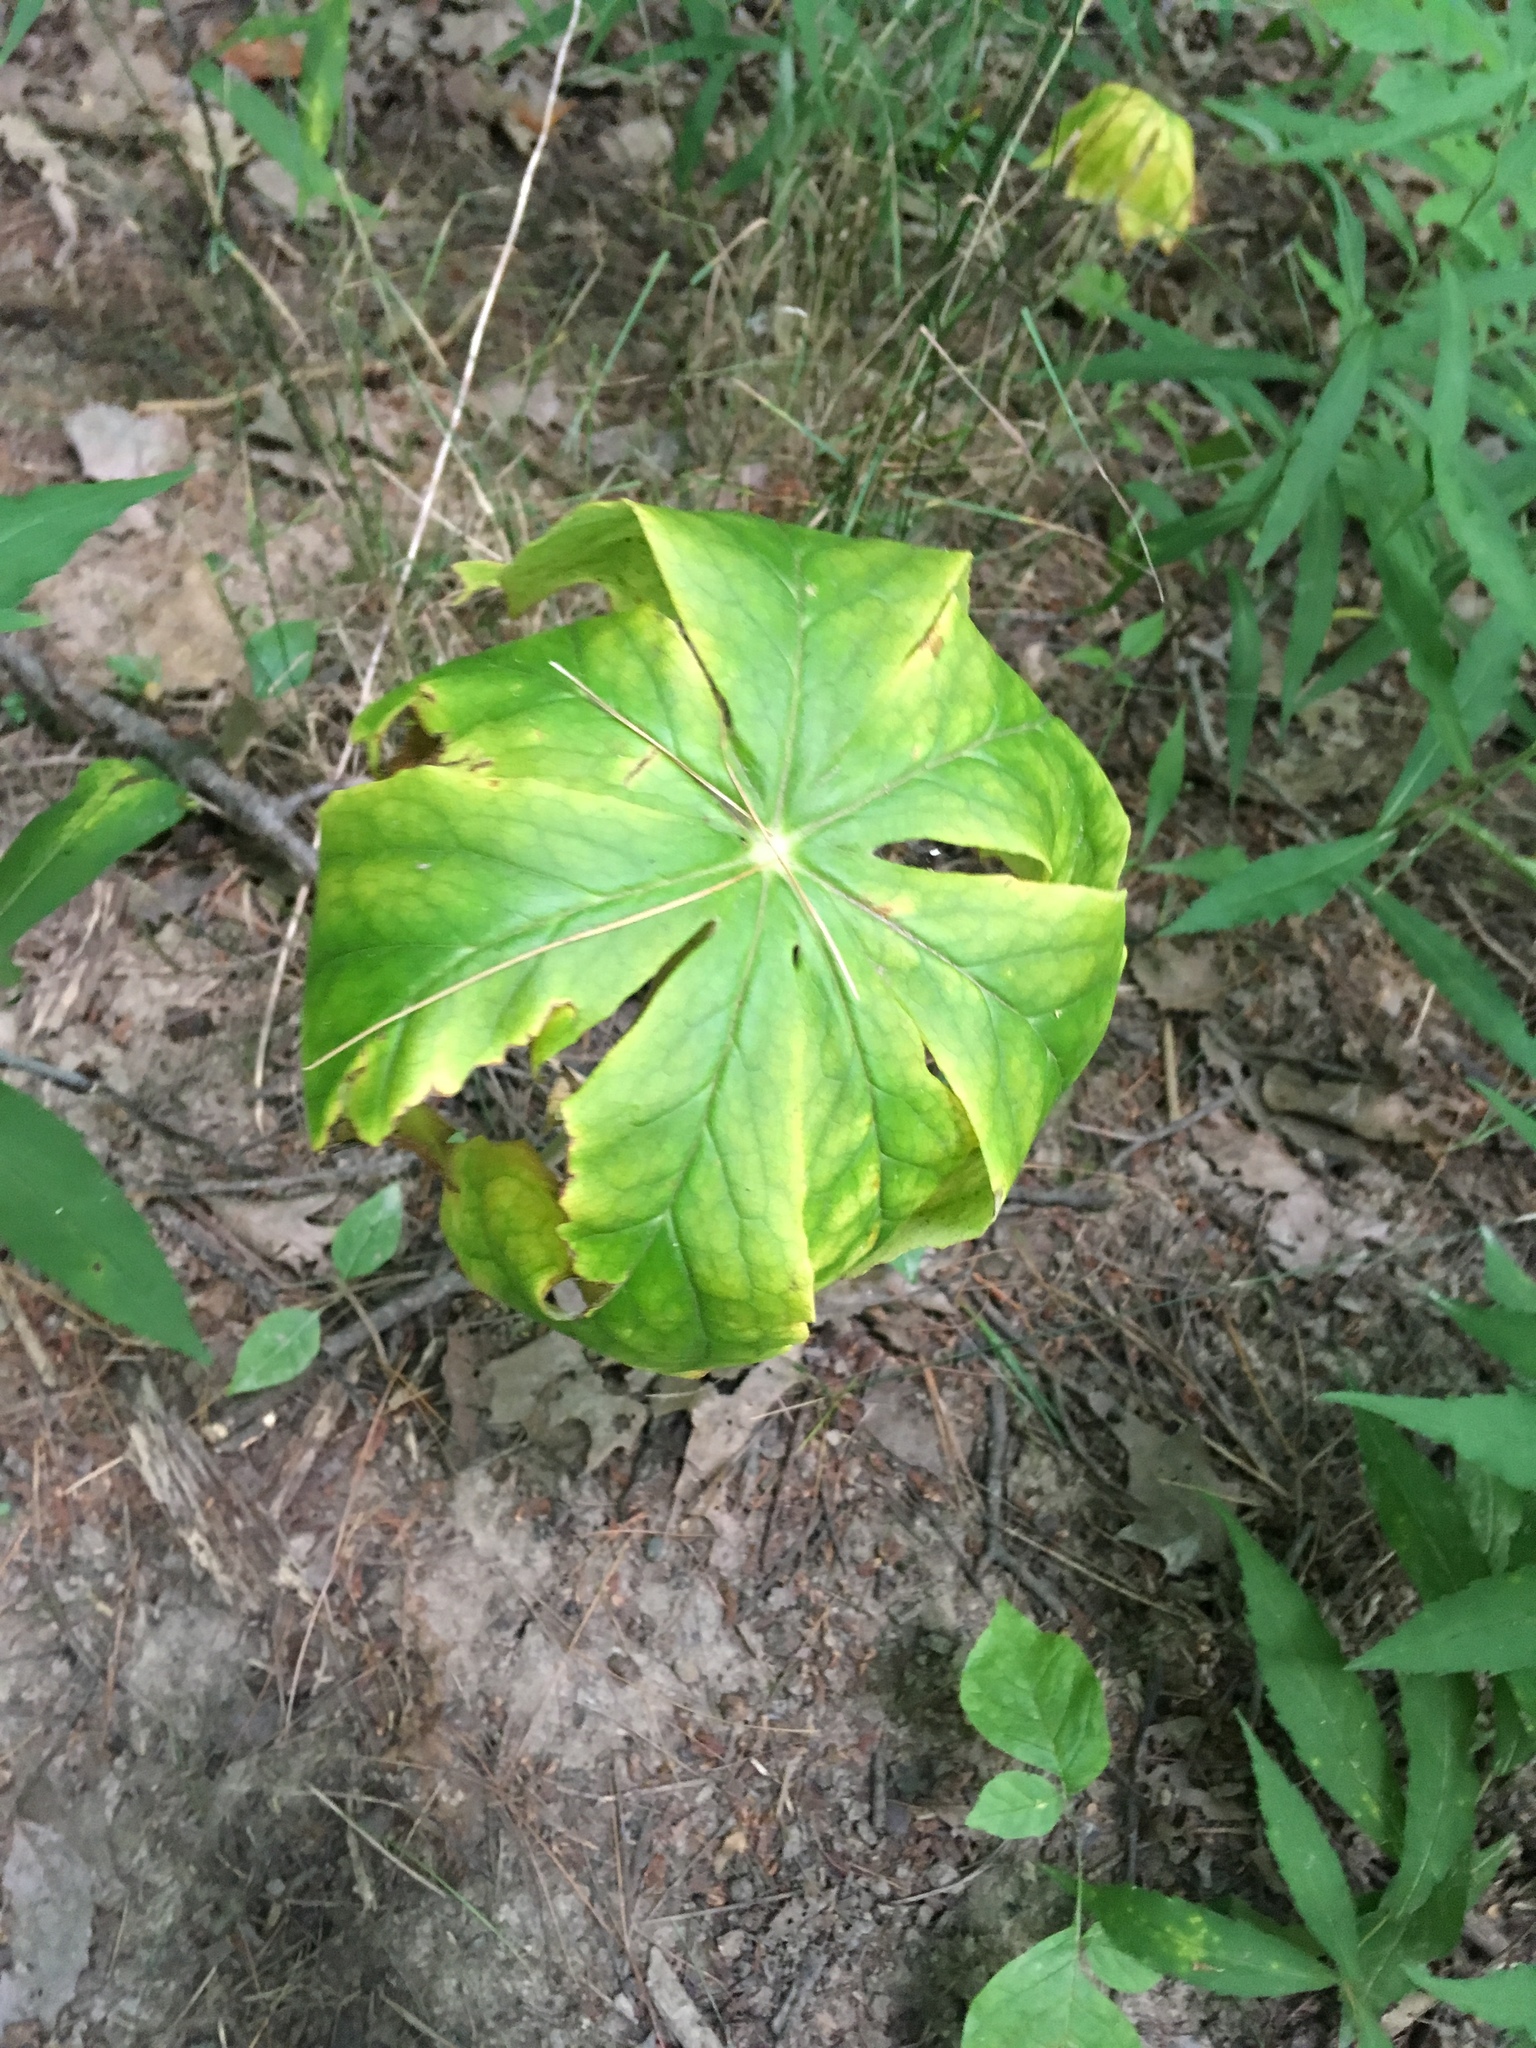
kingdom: Plantae
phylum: Tracheophyta
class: Magnoliopsida
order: Ranunculales
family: Berberidaceae
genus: Podophyllum
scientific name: Podophyllum peltatum
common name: Wild mandrake
